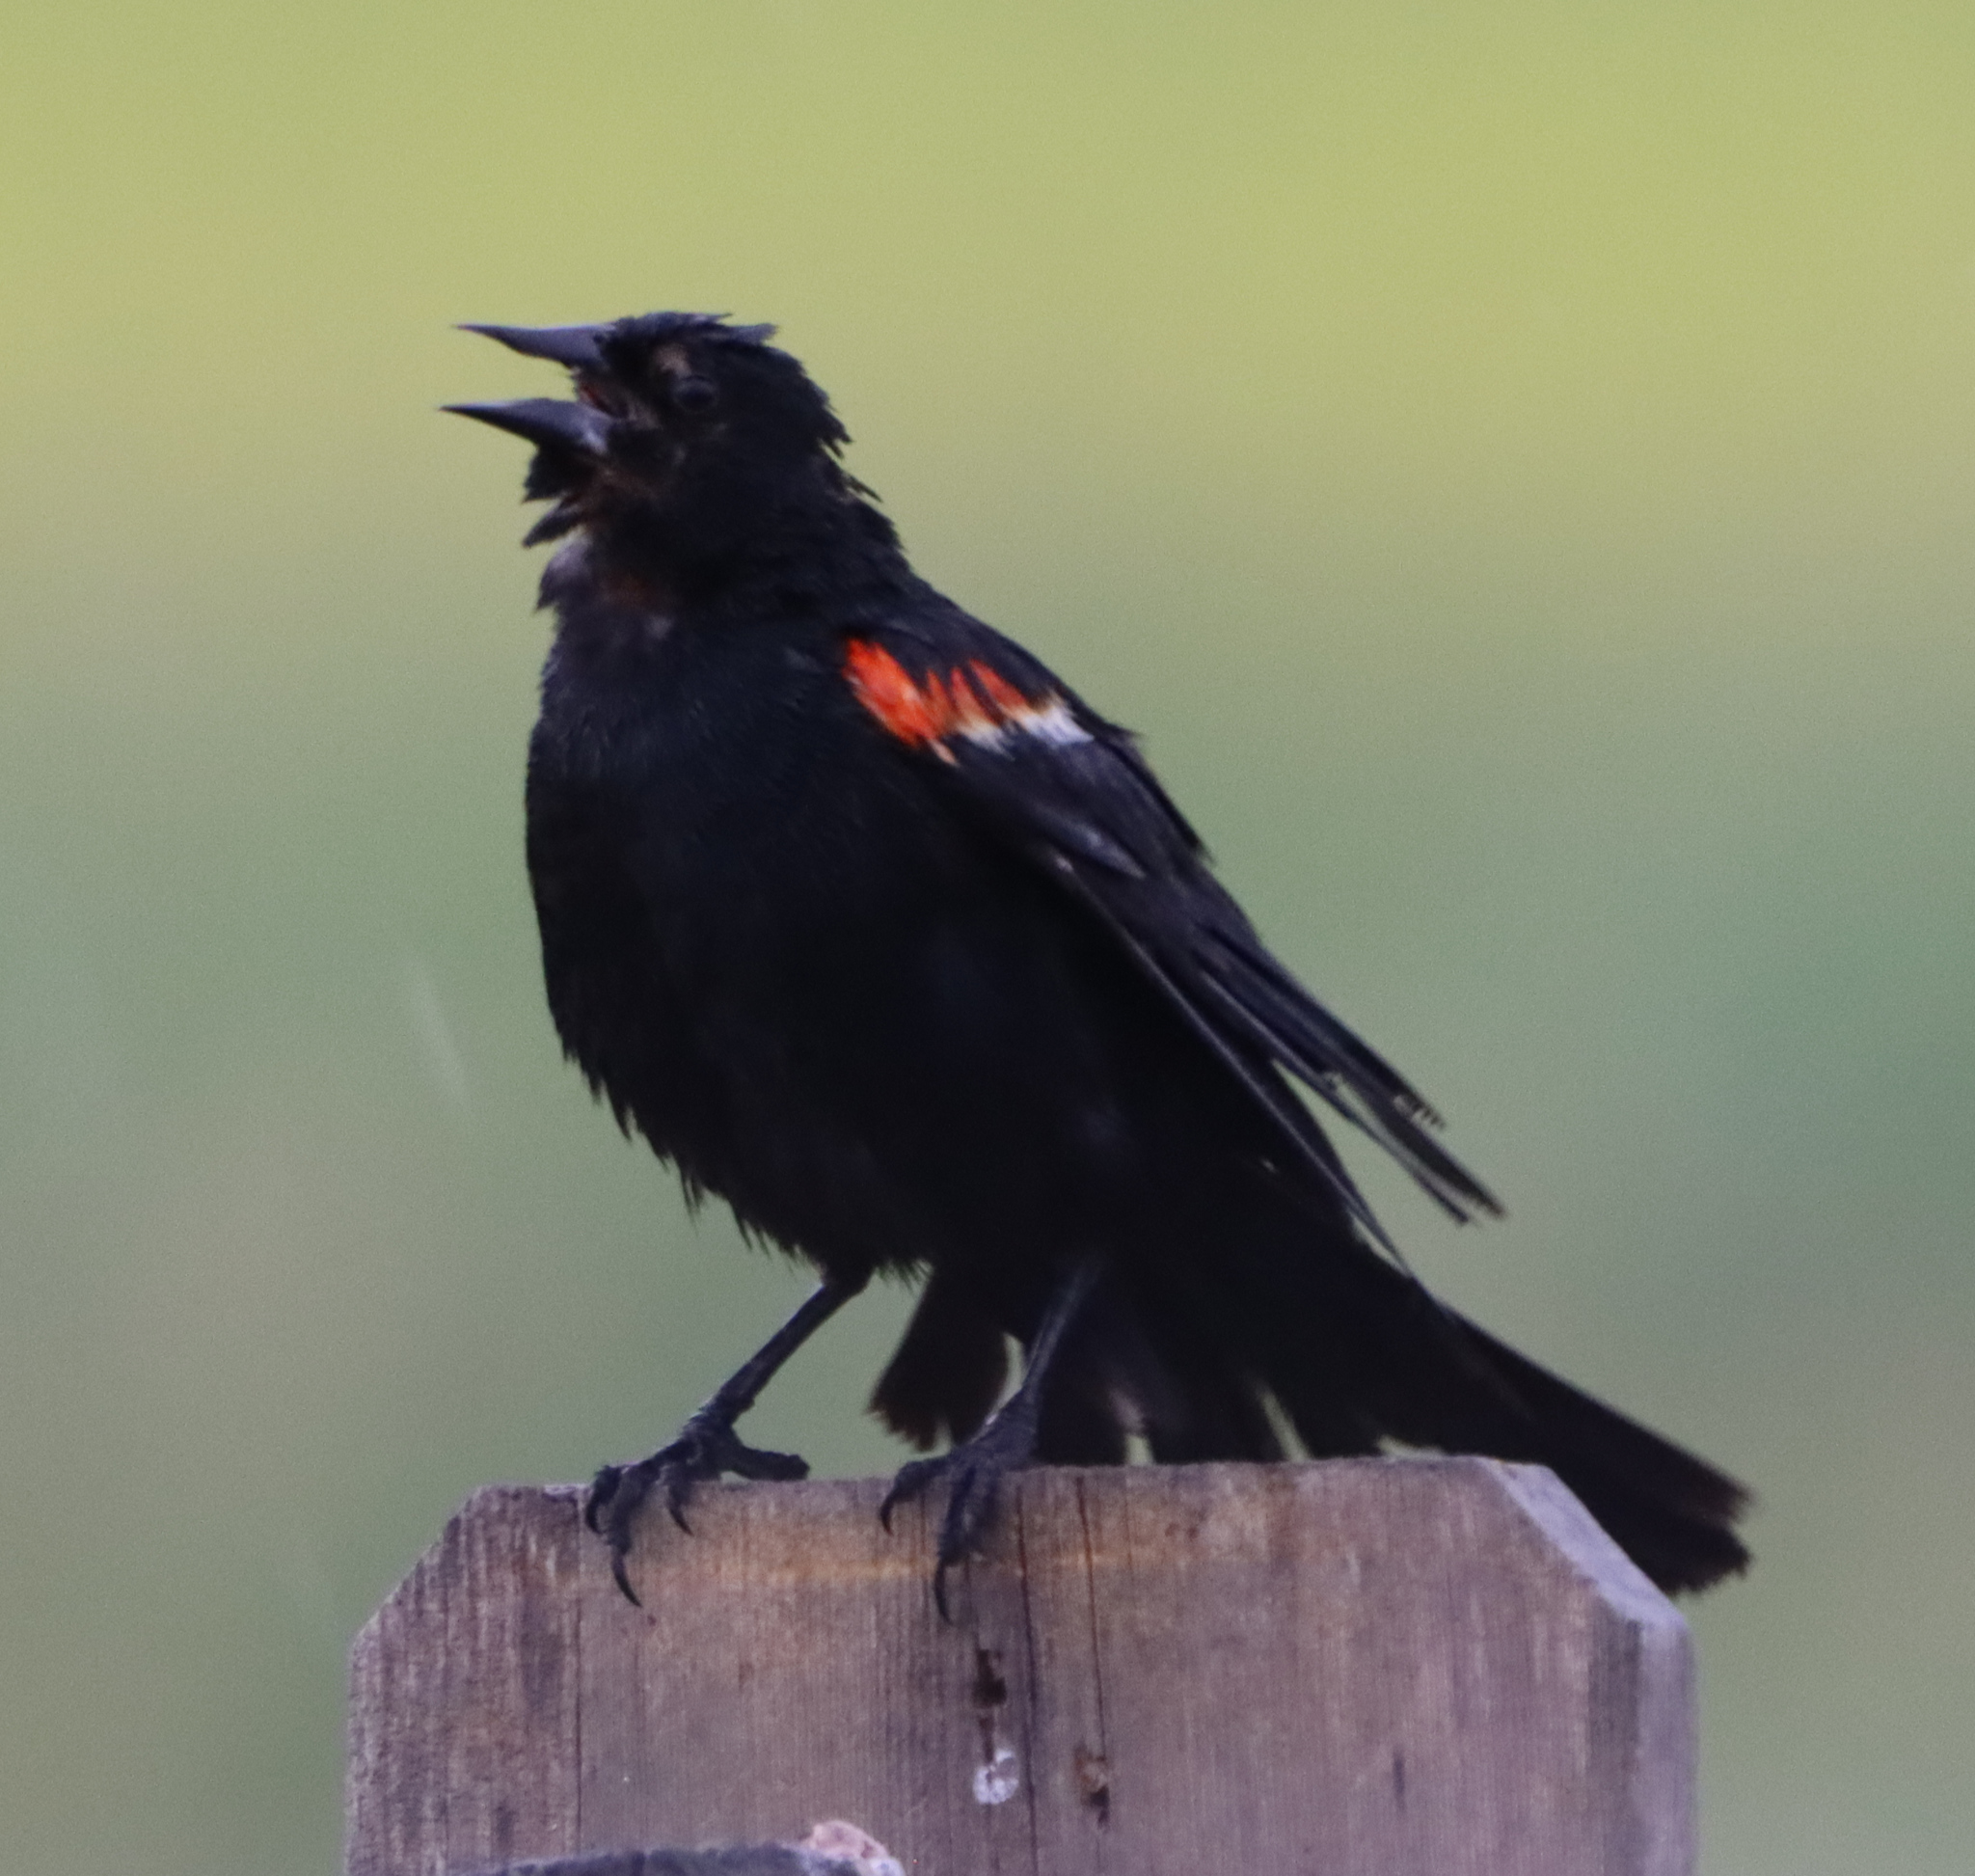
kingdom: Animalia
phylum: Chordata
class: Aves
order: Passeriformes
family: Icteridae
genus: Agelaius
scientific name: Agelaius phoeniceus
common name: Red-winged blackbird
